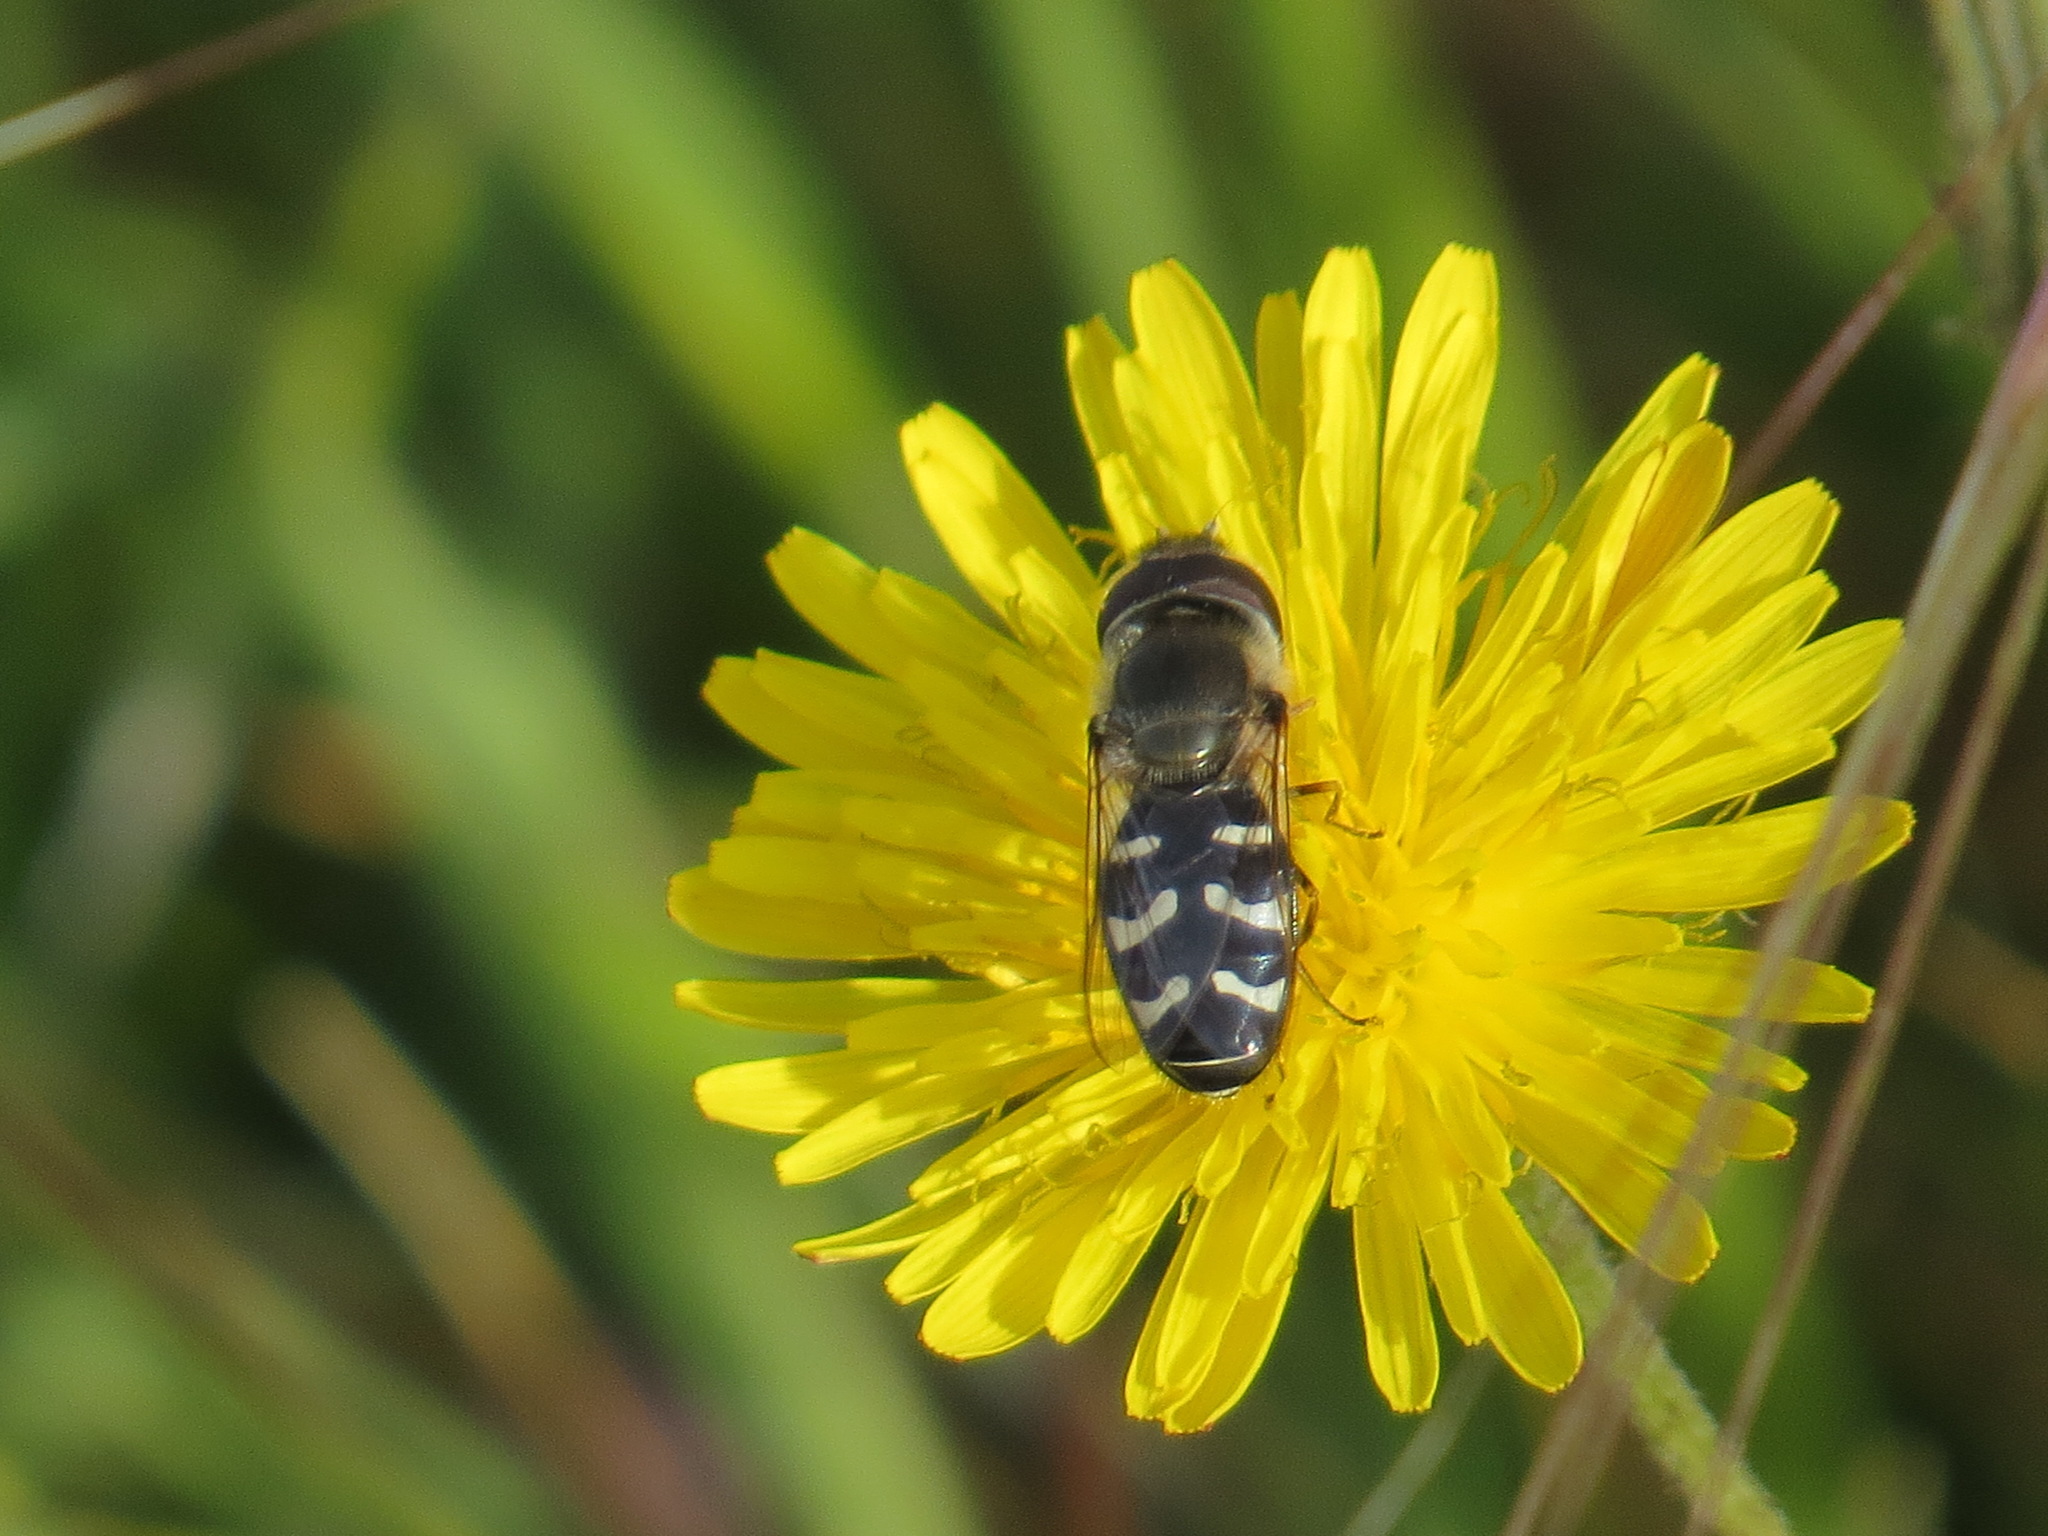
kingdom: Animalia
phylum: Arthropoda
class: Insecta
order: Diptera
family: Syrphidae
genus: Scaeva
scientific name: Scaeva affinis
